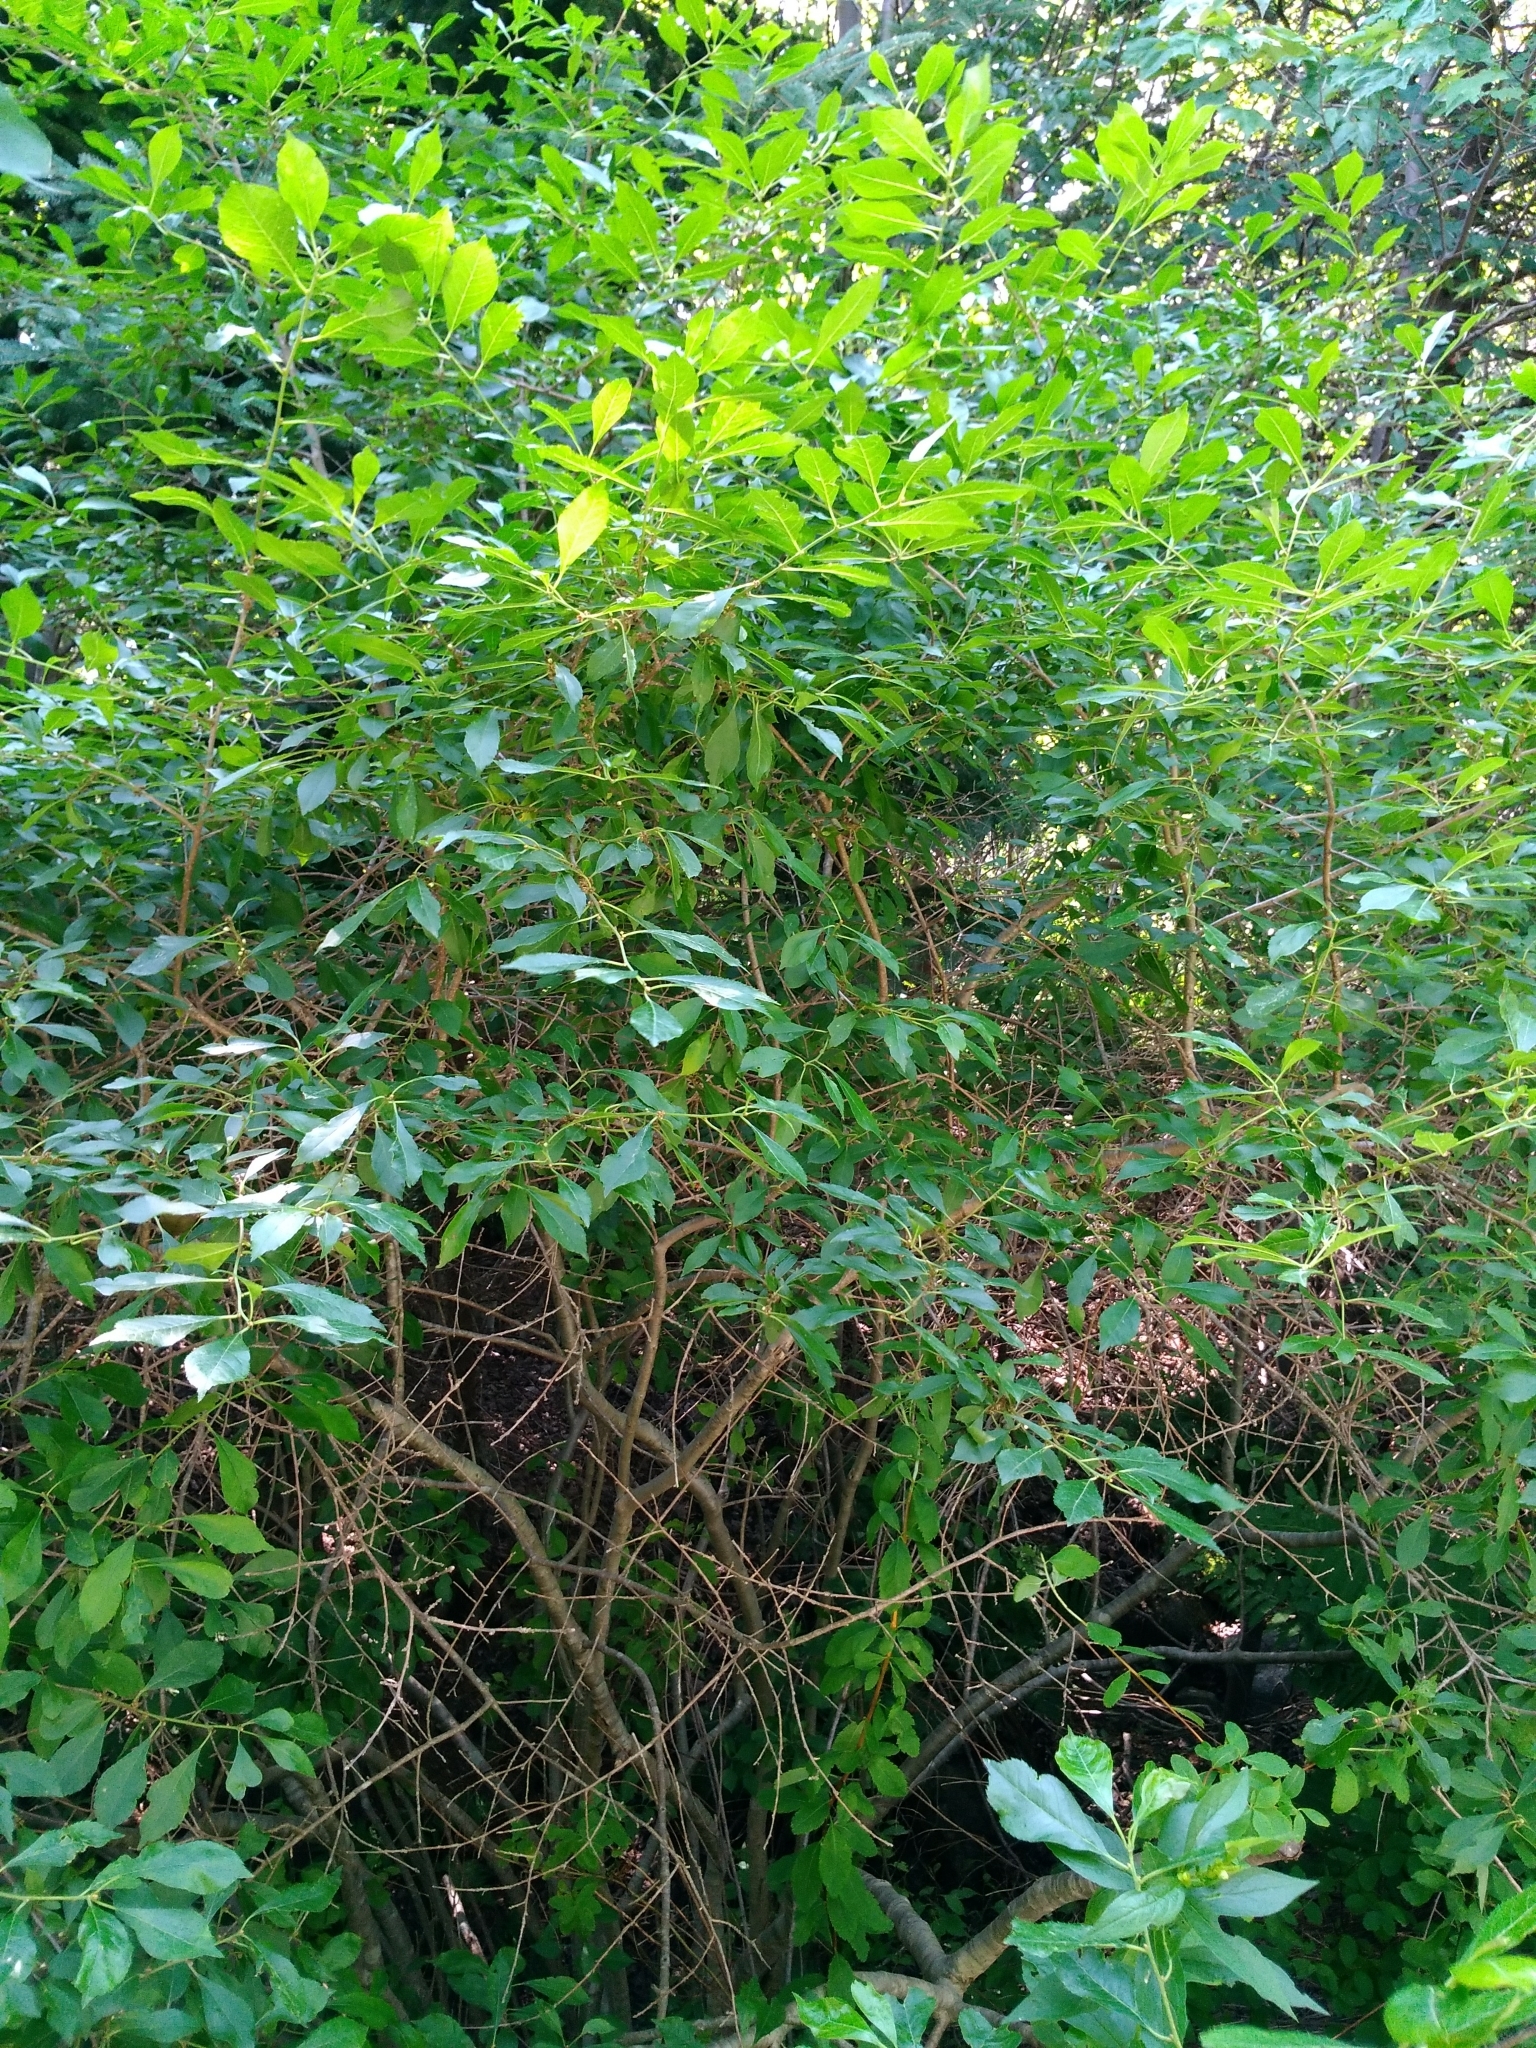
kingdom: Plantae
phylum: Tracheophyta
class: Magnoliopsida
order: Aquifoliales
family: Aquifoliaceae
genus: Ilex
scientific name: Ilex verticillata
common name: Virginia winterberry
